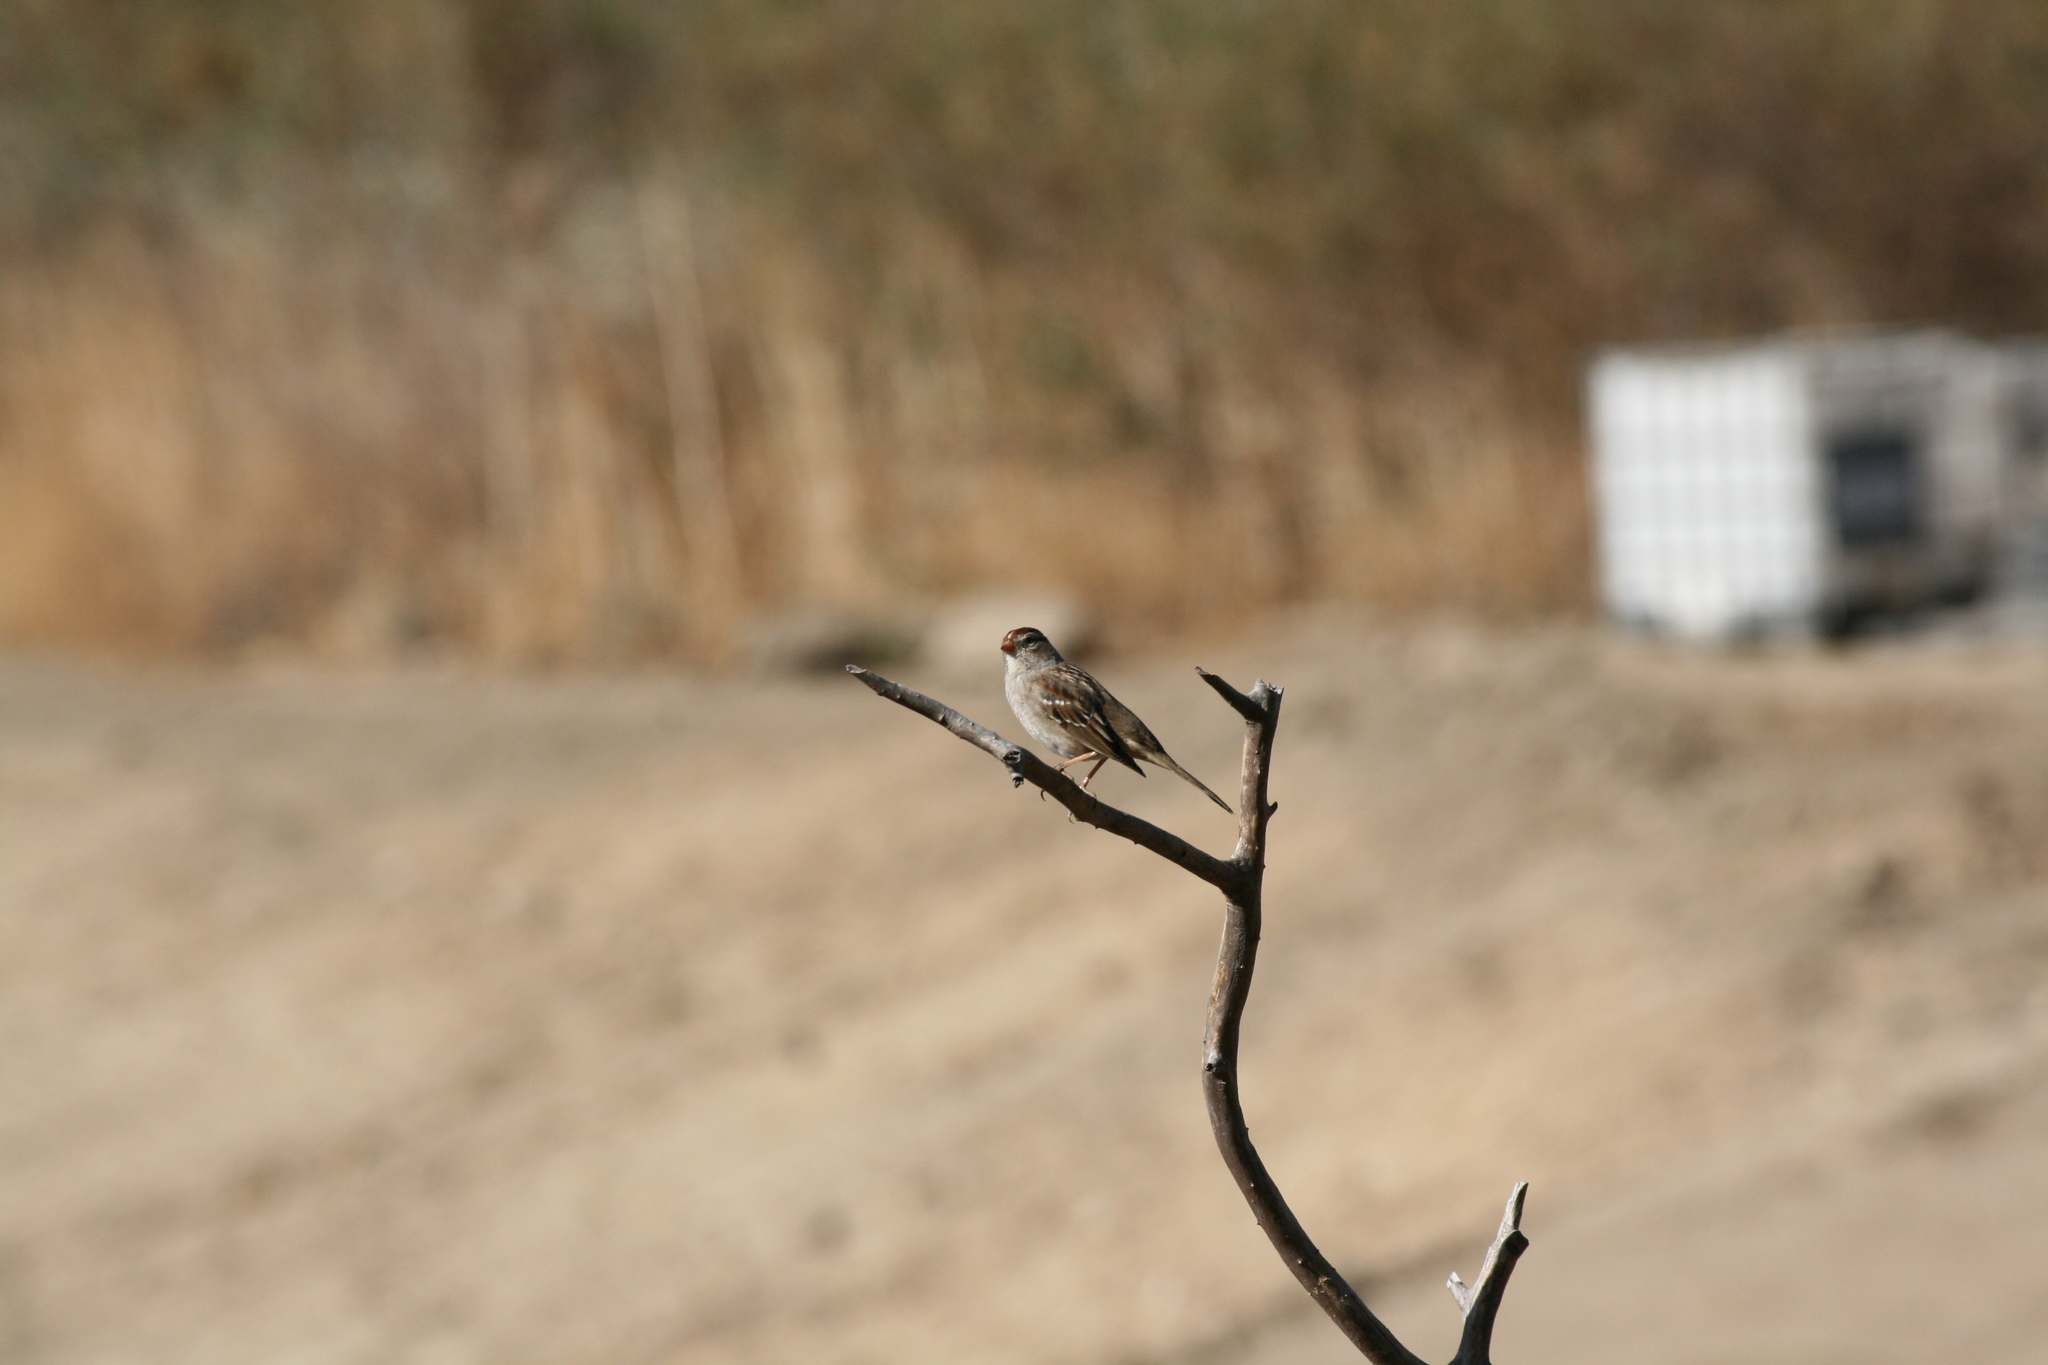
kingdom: Animalia
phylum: Chordata
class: Aves
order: Passeriformes
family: Passerellidae
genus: Zonotrichia
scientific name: Zonotrichia leucophrys
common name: White-crowned sparrow
